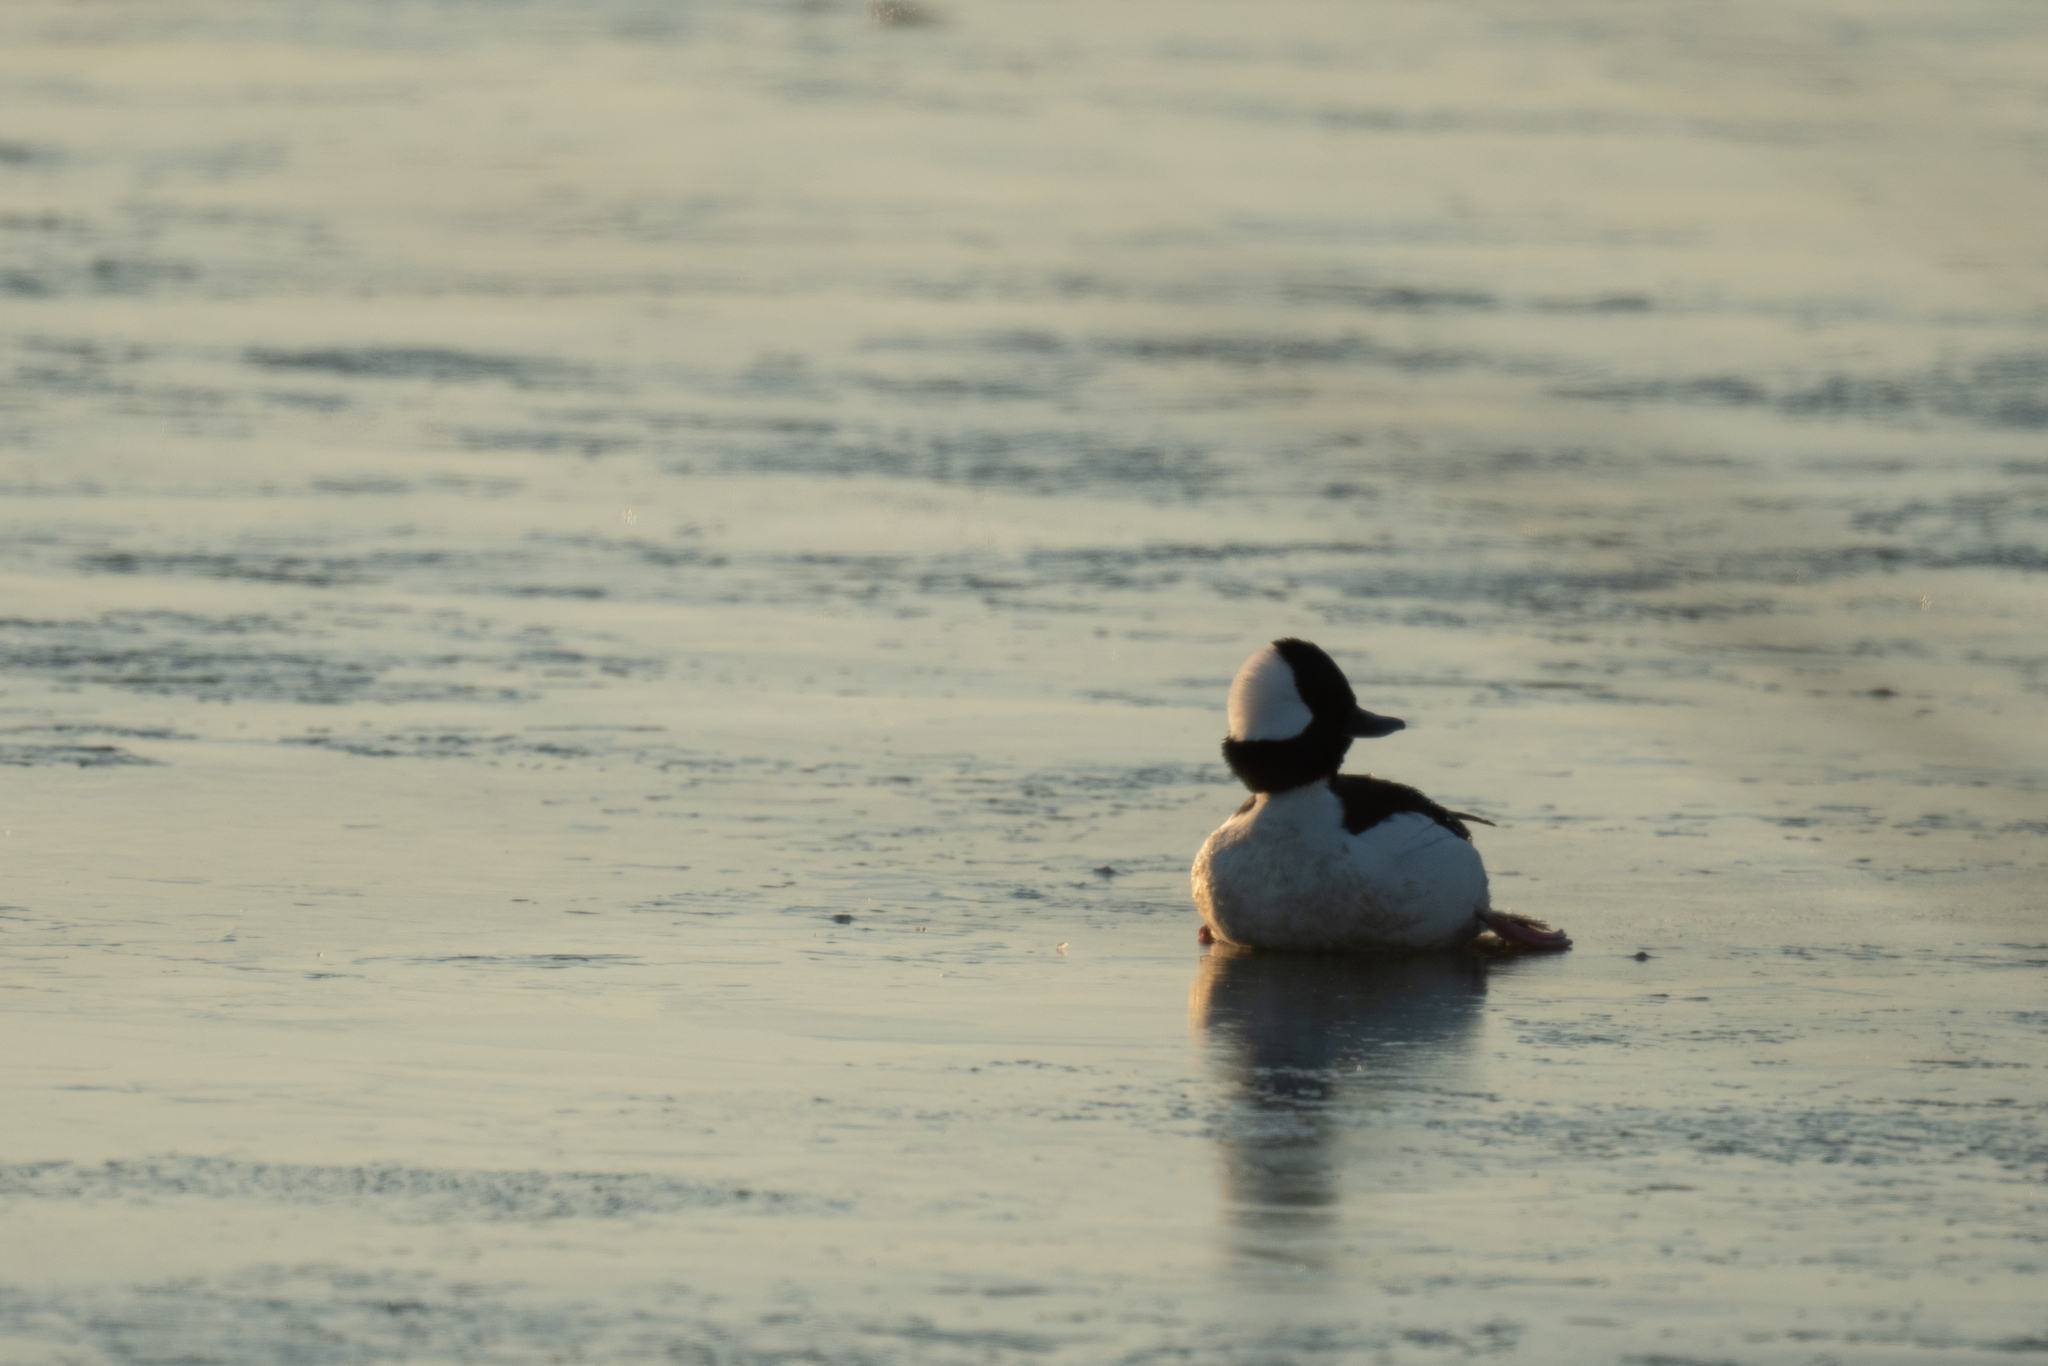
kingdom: Animalia
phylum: Chordata
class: Aves
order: Anseriformes
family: Anatidae
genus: Bucephala
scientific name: Bucephala albeola
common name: Bufflehead
